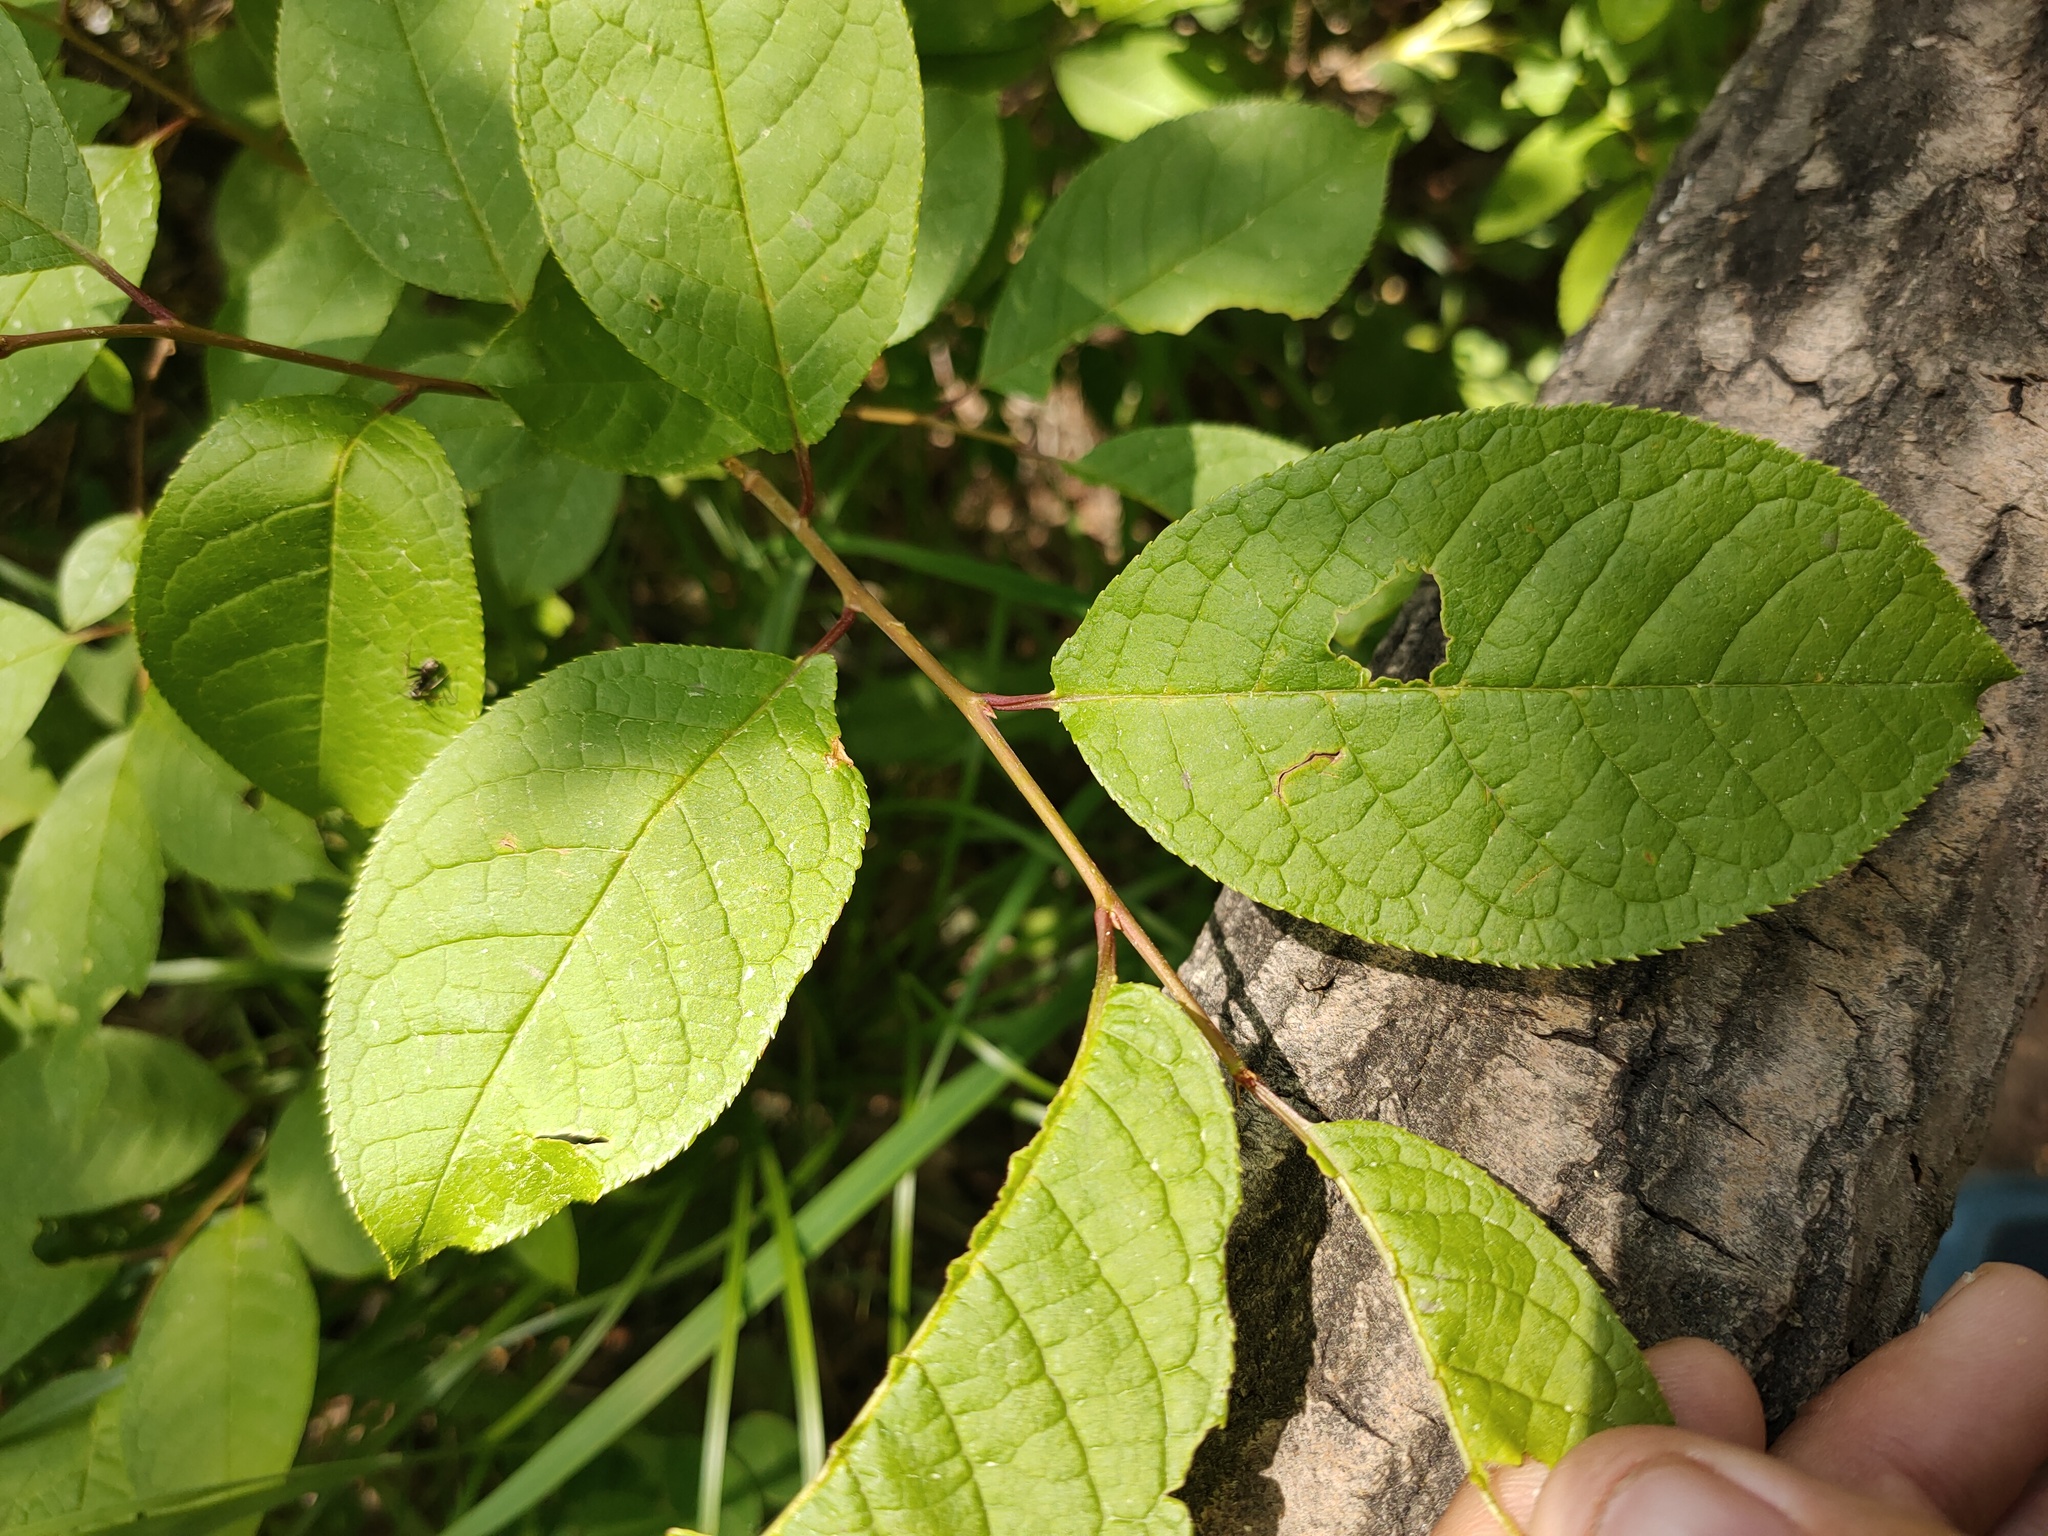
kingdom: Plantae
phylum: Tracheophyta
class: Magnoliopsida
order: Rosales
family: Rosaceae
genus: Prunus
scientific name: Prunus padus
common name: Bird cherry
